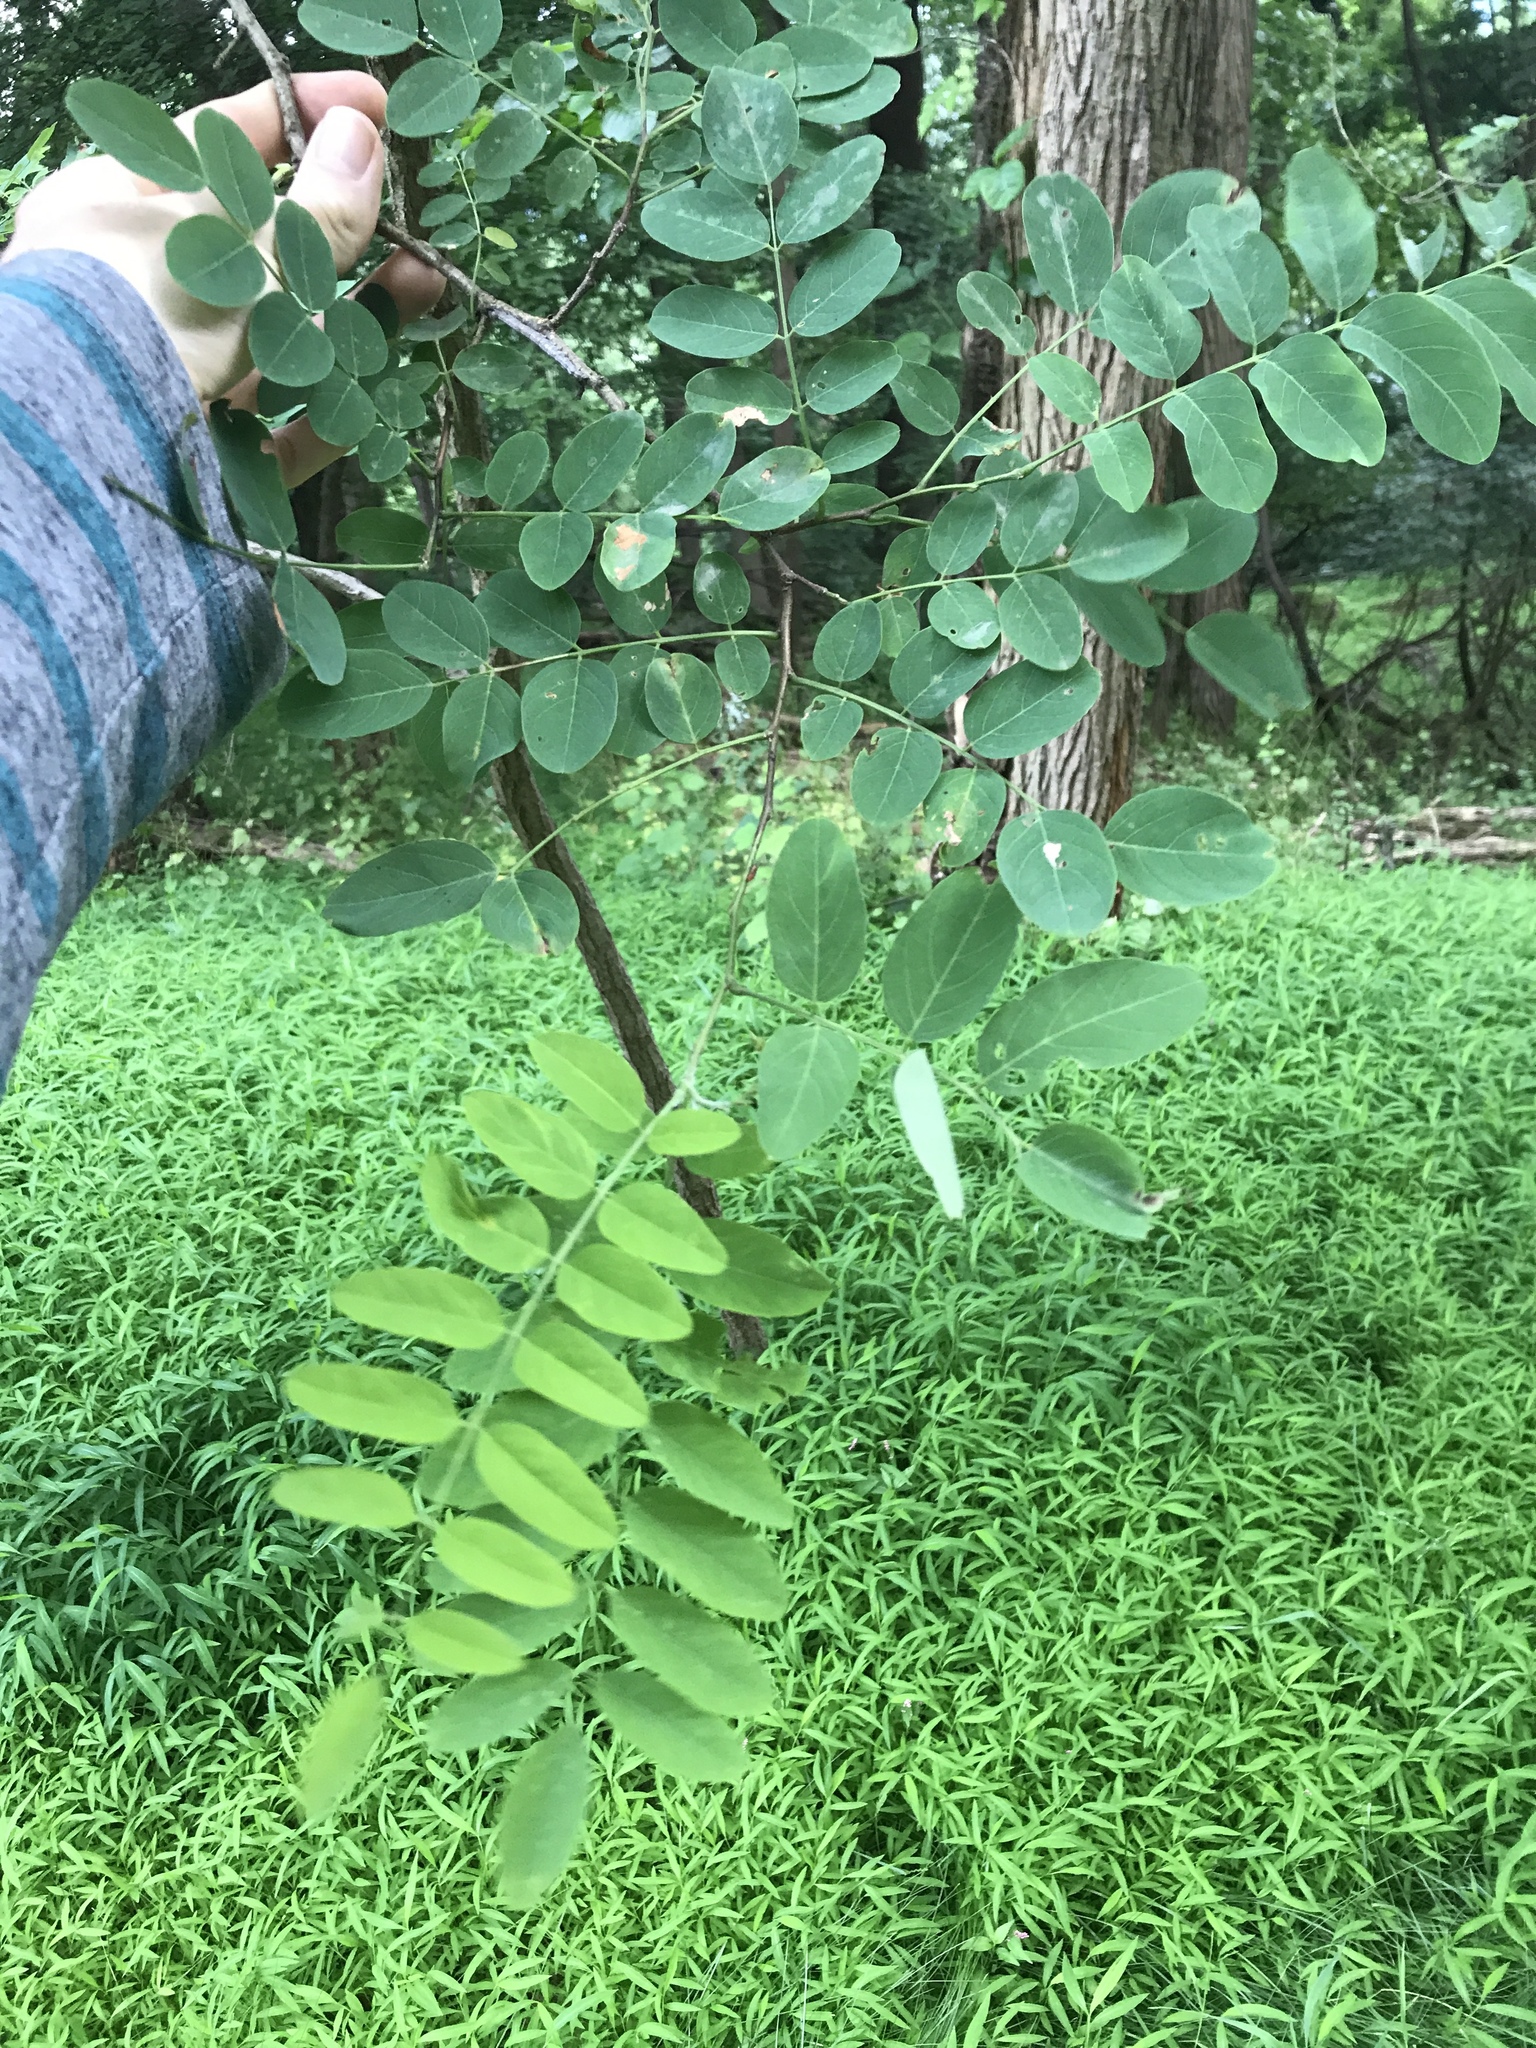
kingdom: Plantae
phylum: Tracheophyta
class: Magnoliopsida
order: Fabales
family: Fabaceae
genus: Robinia
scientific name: Robinia pseudoacacia
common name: Black locust
